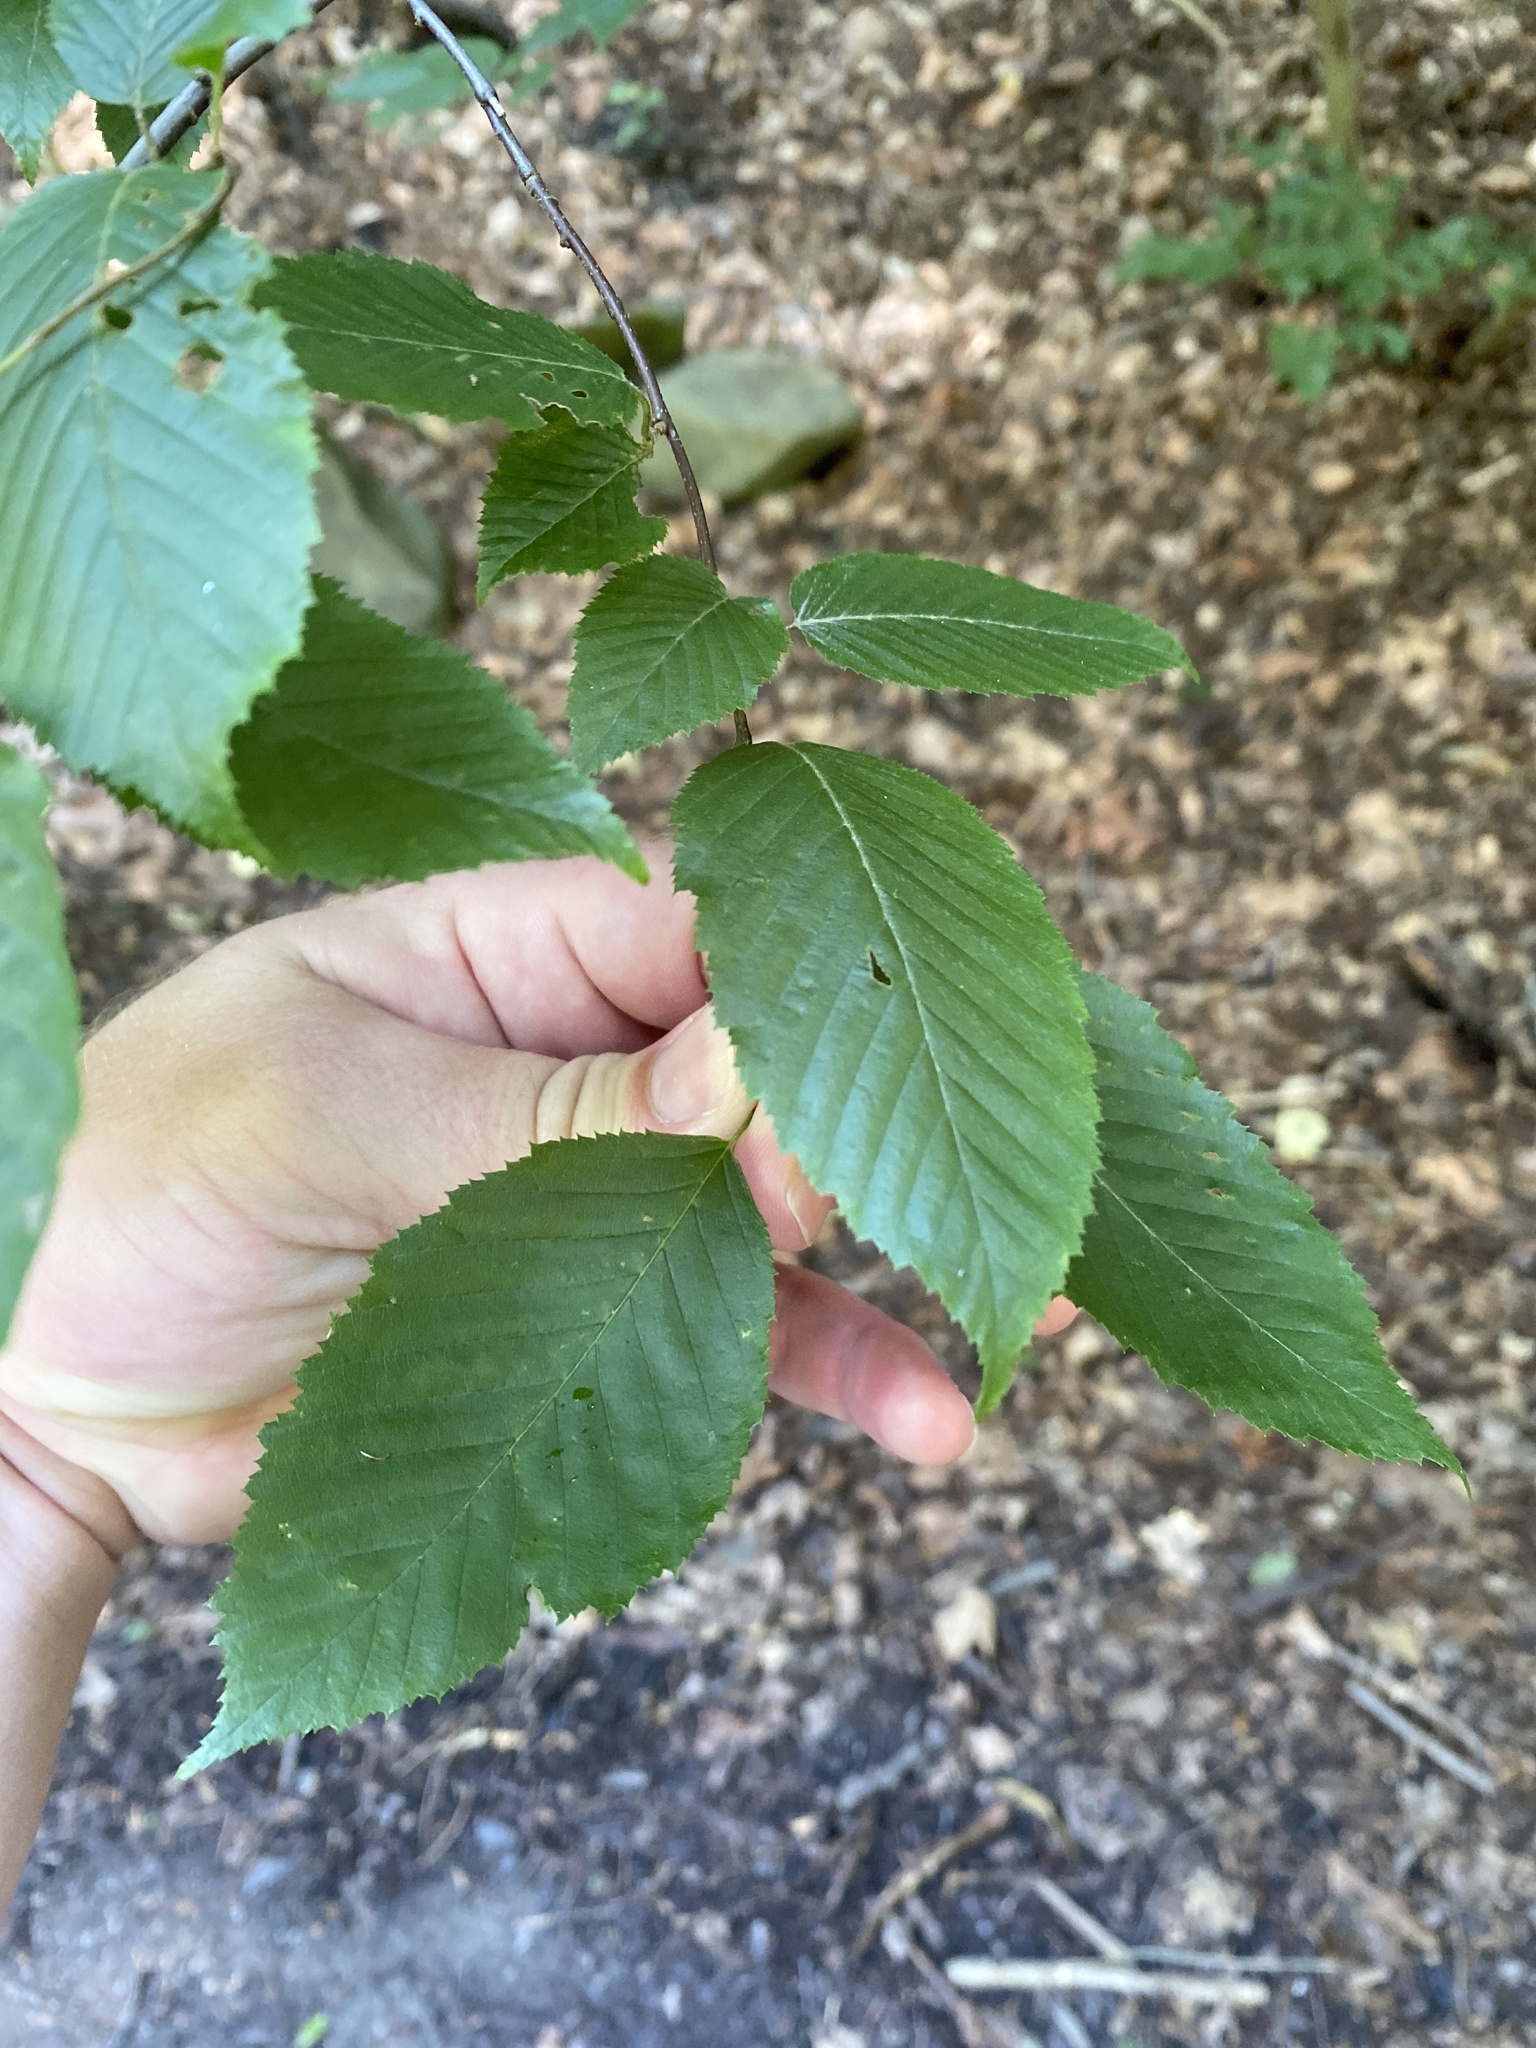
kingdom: Plantae
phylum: Tracheophyta
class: Magnoliopsida
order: Fagales
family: Betulaceae
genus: Carpinus
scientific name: Carpinus caroliniana
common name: American hornbeam
